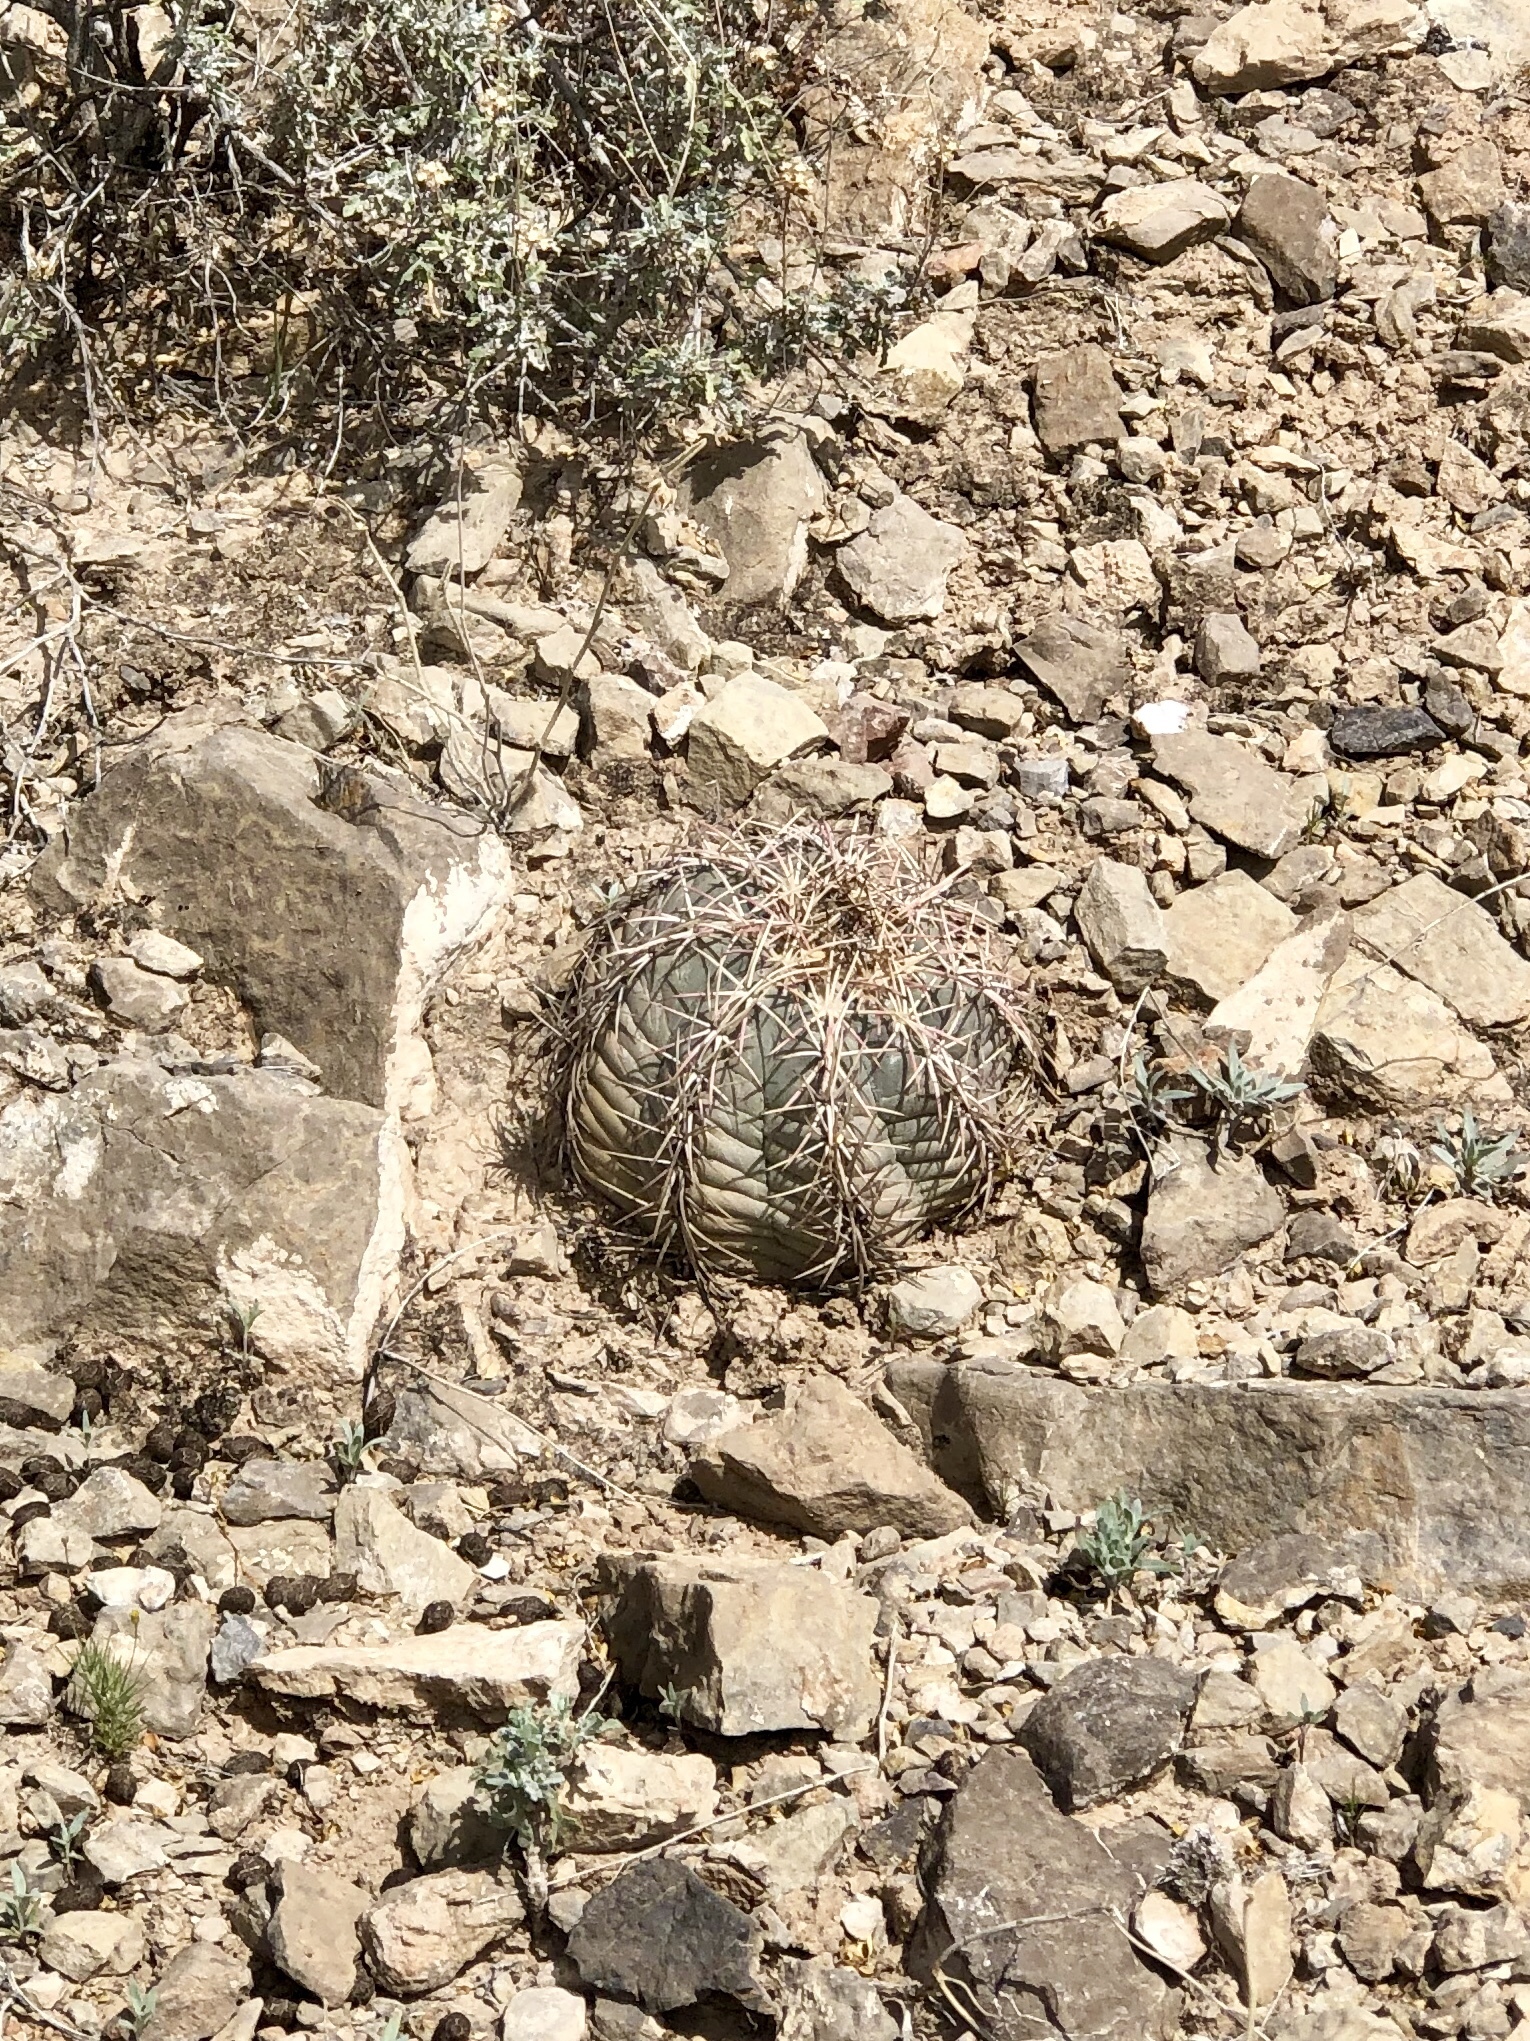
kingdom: Plantae
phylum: Tracheophyta
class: Magnoliopsida
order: Caryophyllales
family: Cactaceae
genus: Echinocactus
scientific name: Echinocactus horizonthalonius
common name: Devilshead
